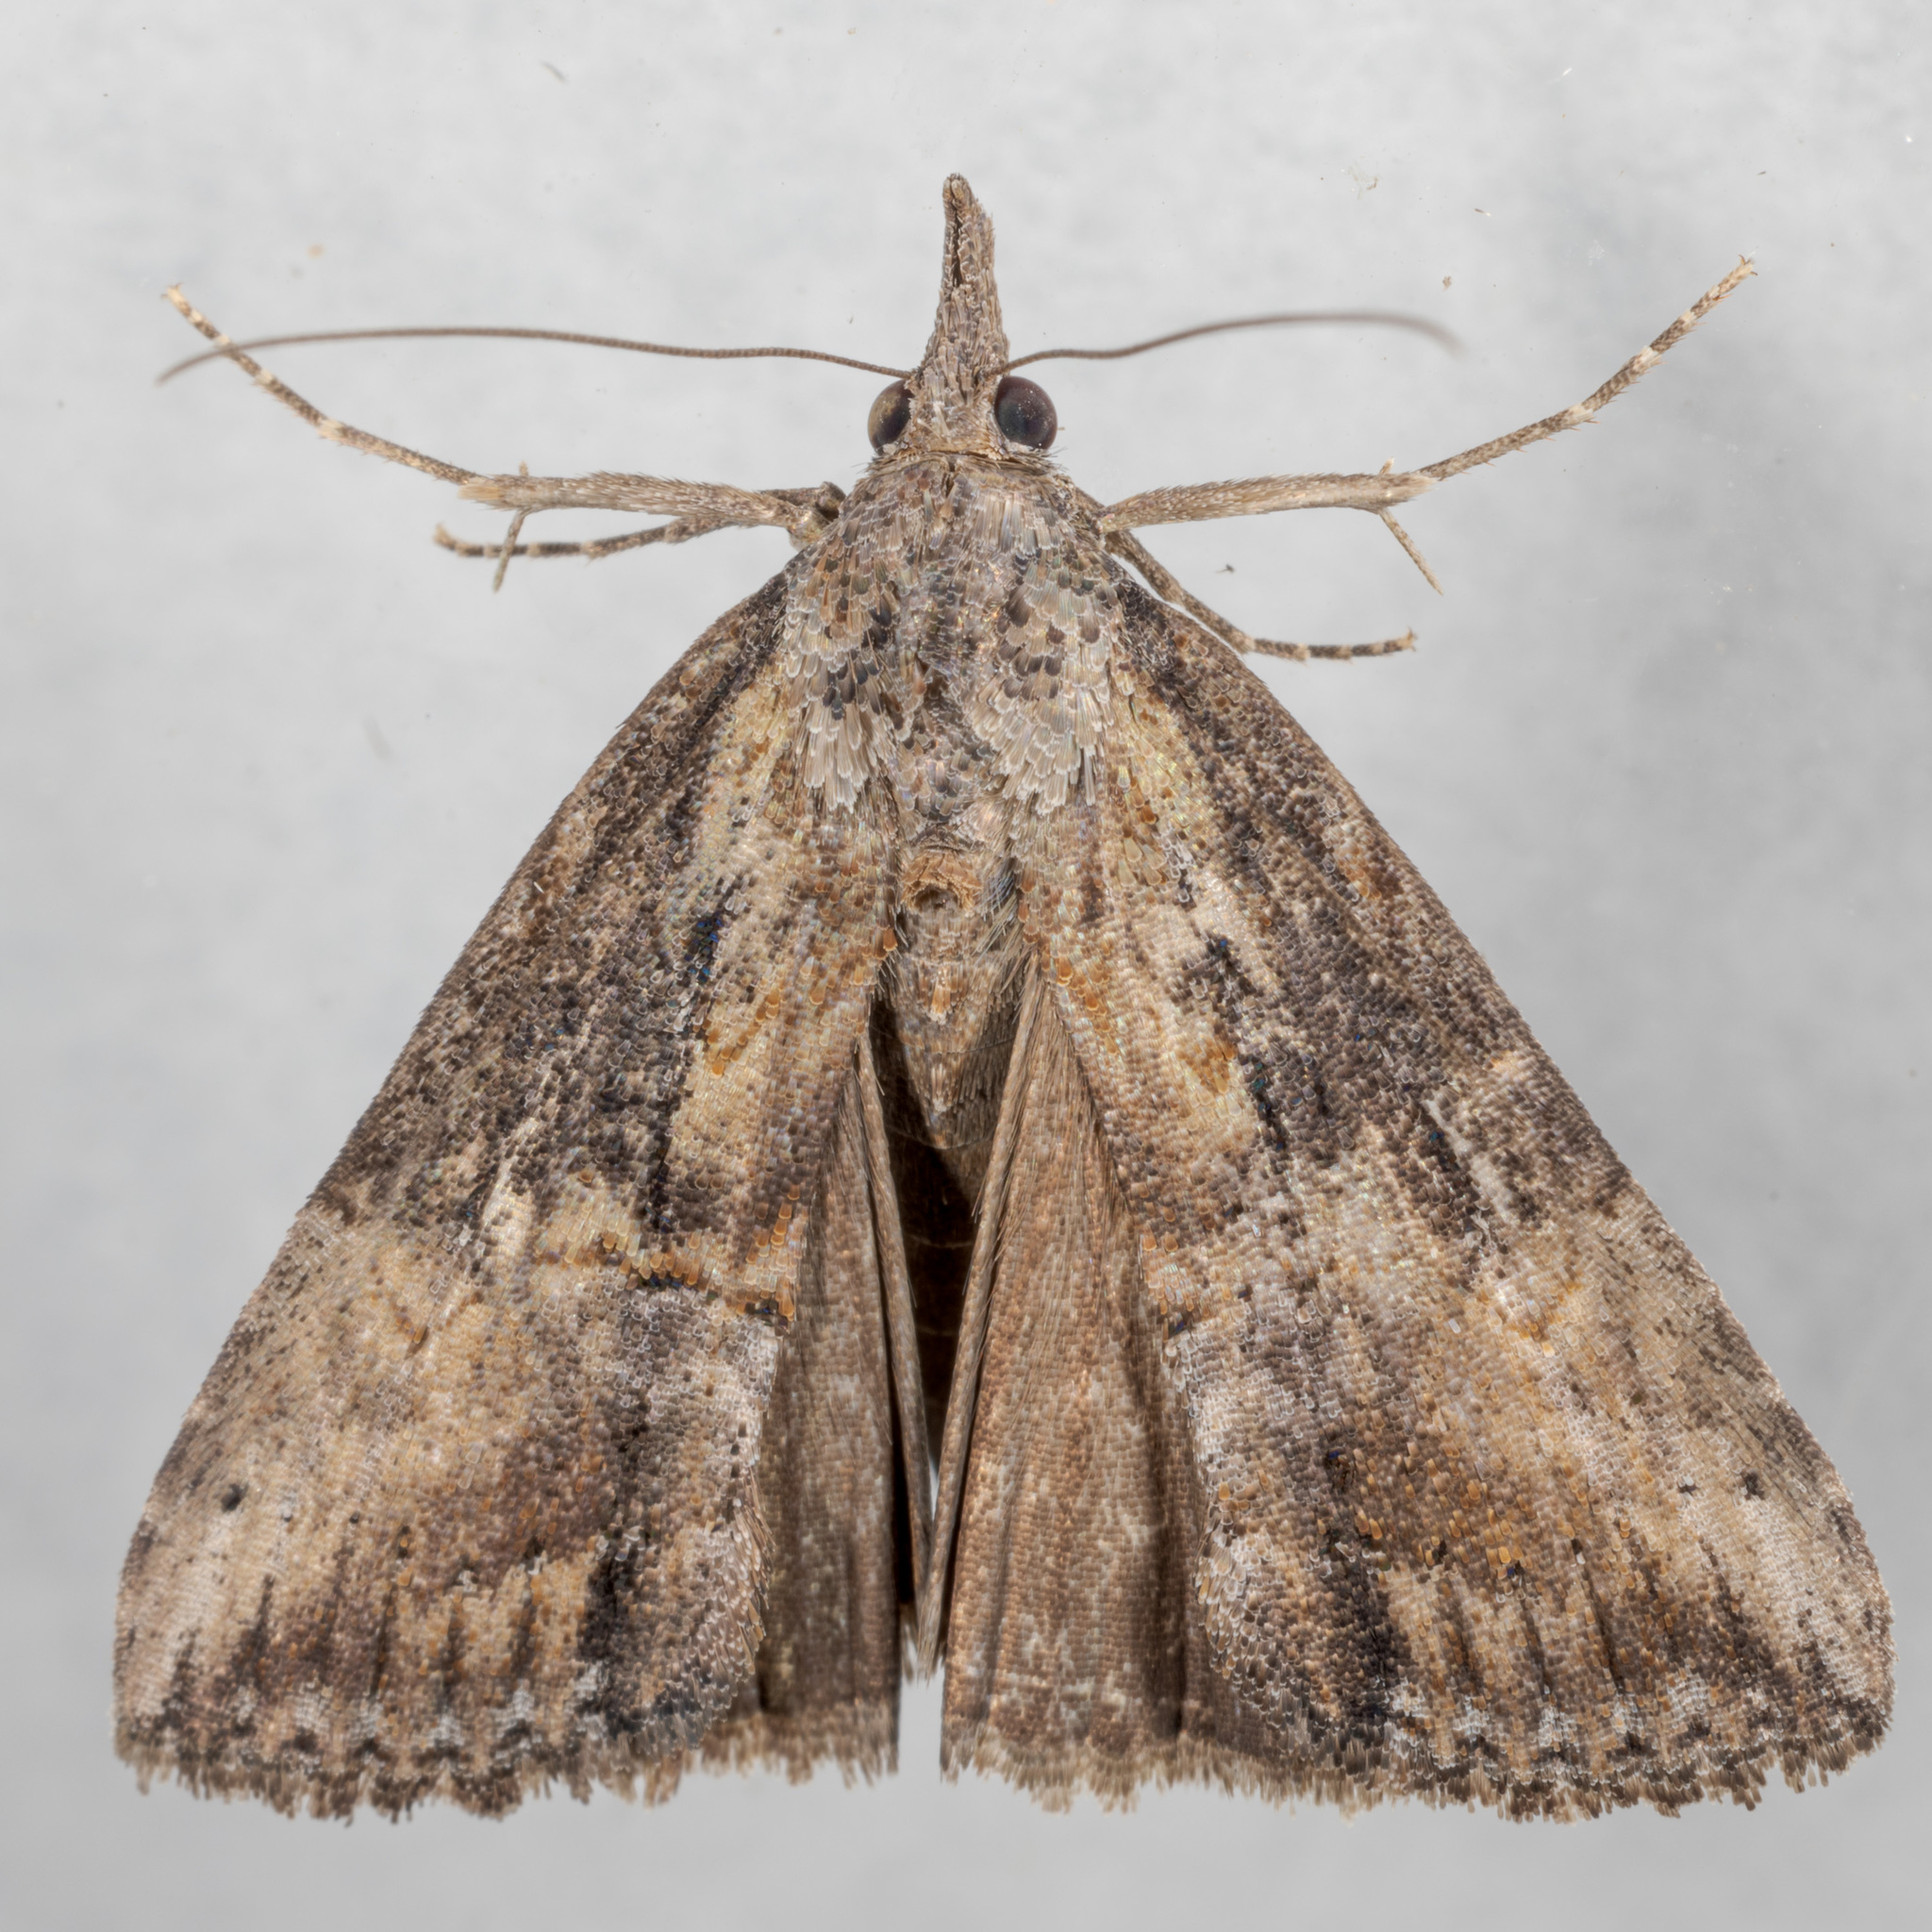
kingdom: Animalia
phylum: Arthropoda
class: Insecta
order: Lepidoptera
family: Erebidae
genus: Hypena
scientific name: Hypena scabra
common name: Green cloverworm
